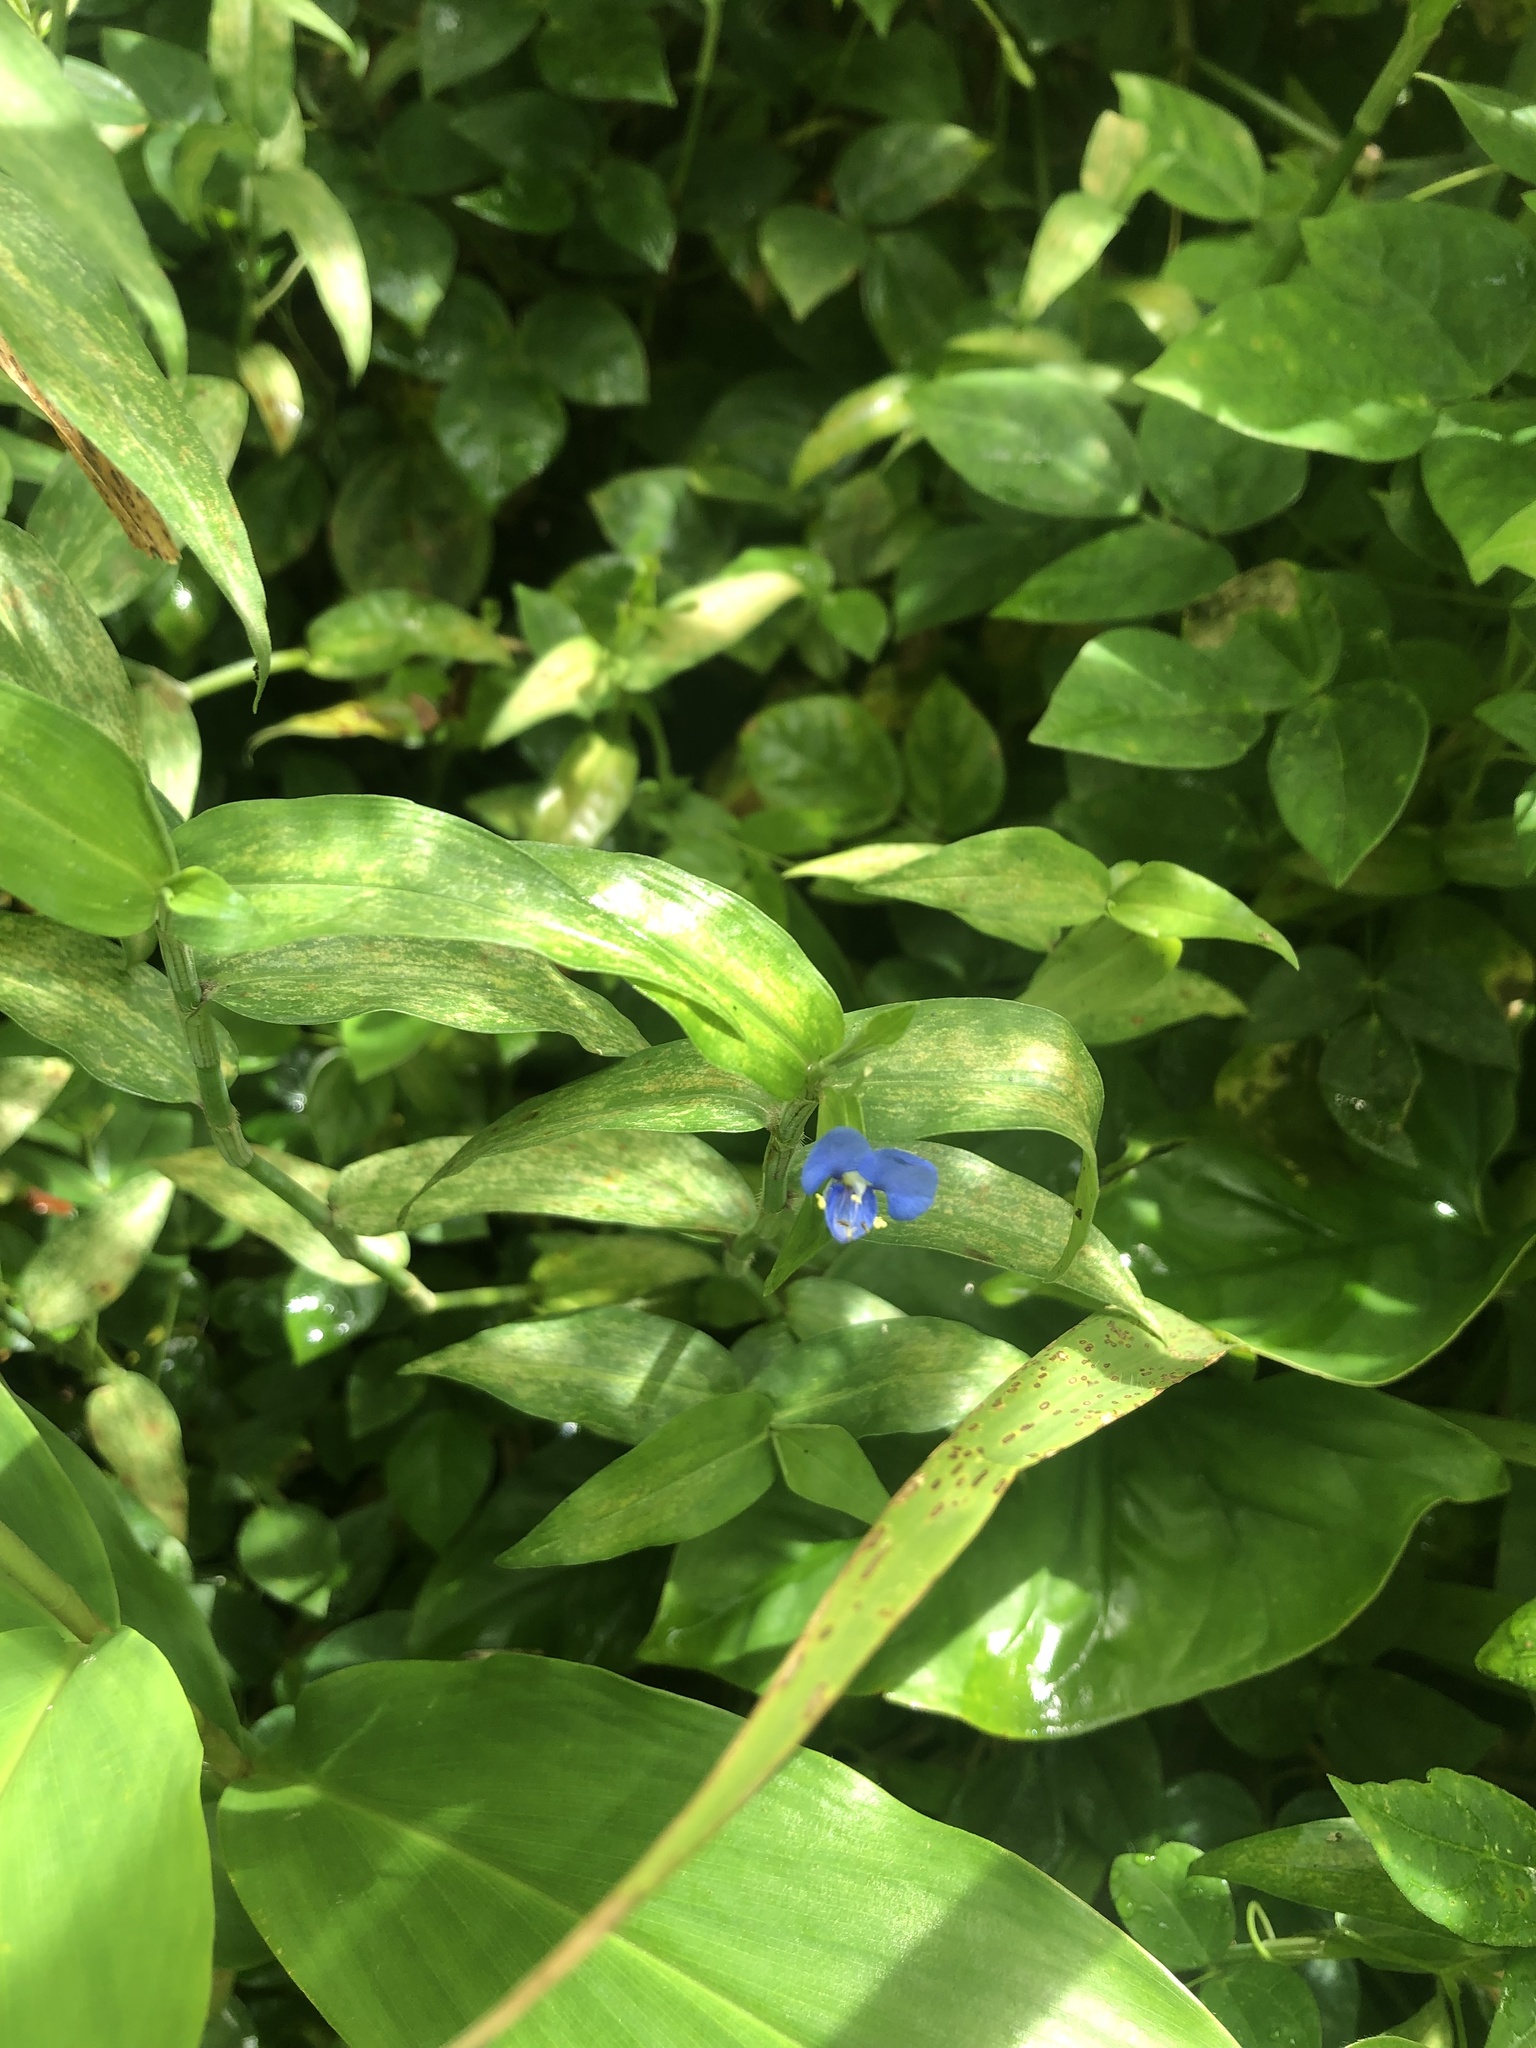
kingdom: Plantae
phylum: Tracheophyta
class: Liliopsida
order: Commelinales
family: Commelinaceae
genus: Commelina
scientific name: Commelina diffusa
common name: Climbing dayflower
